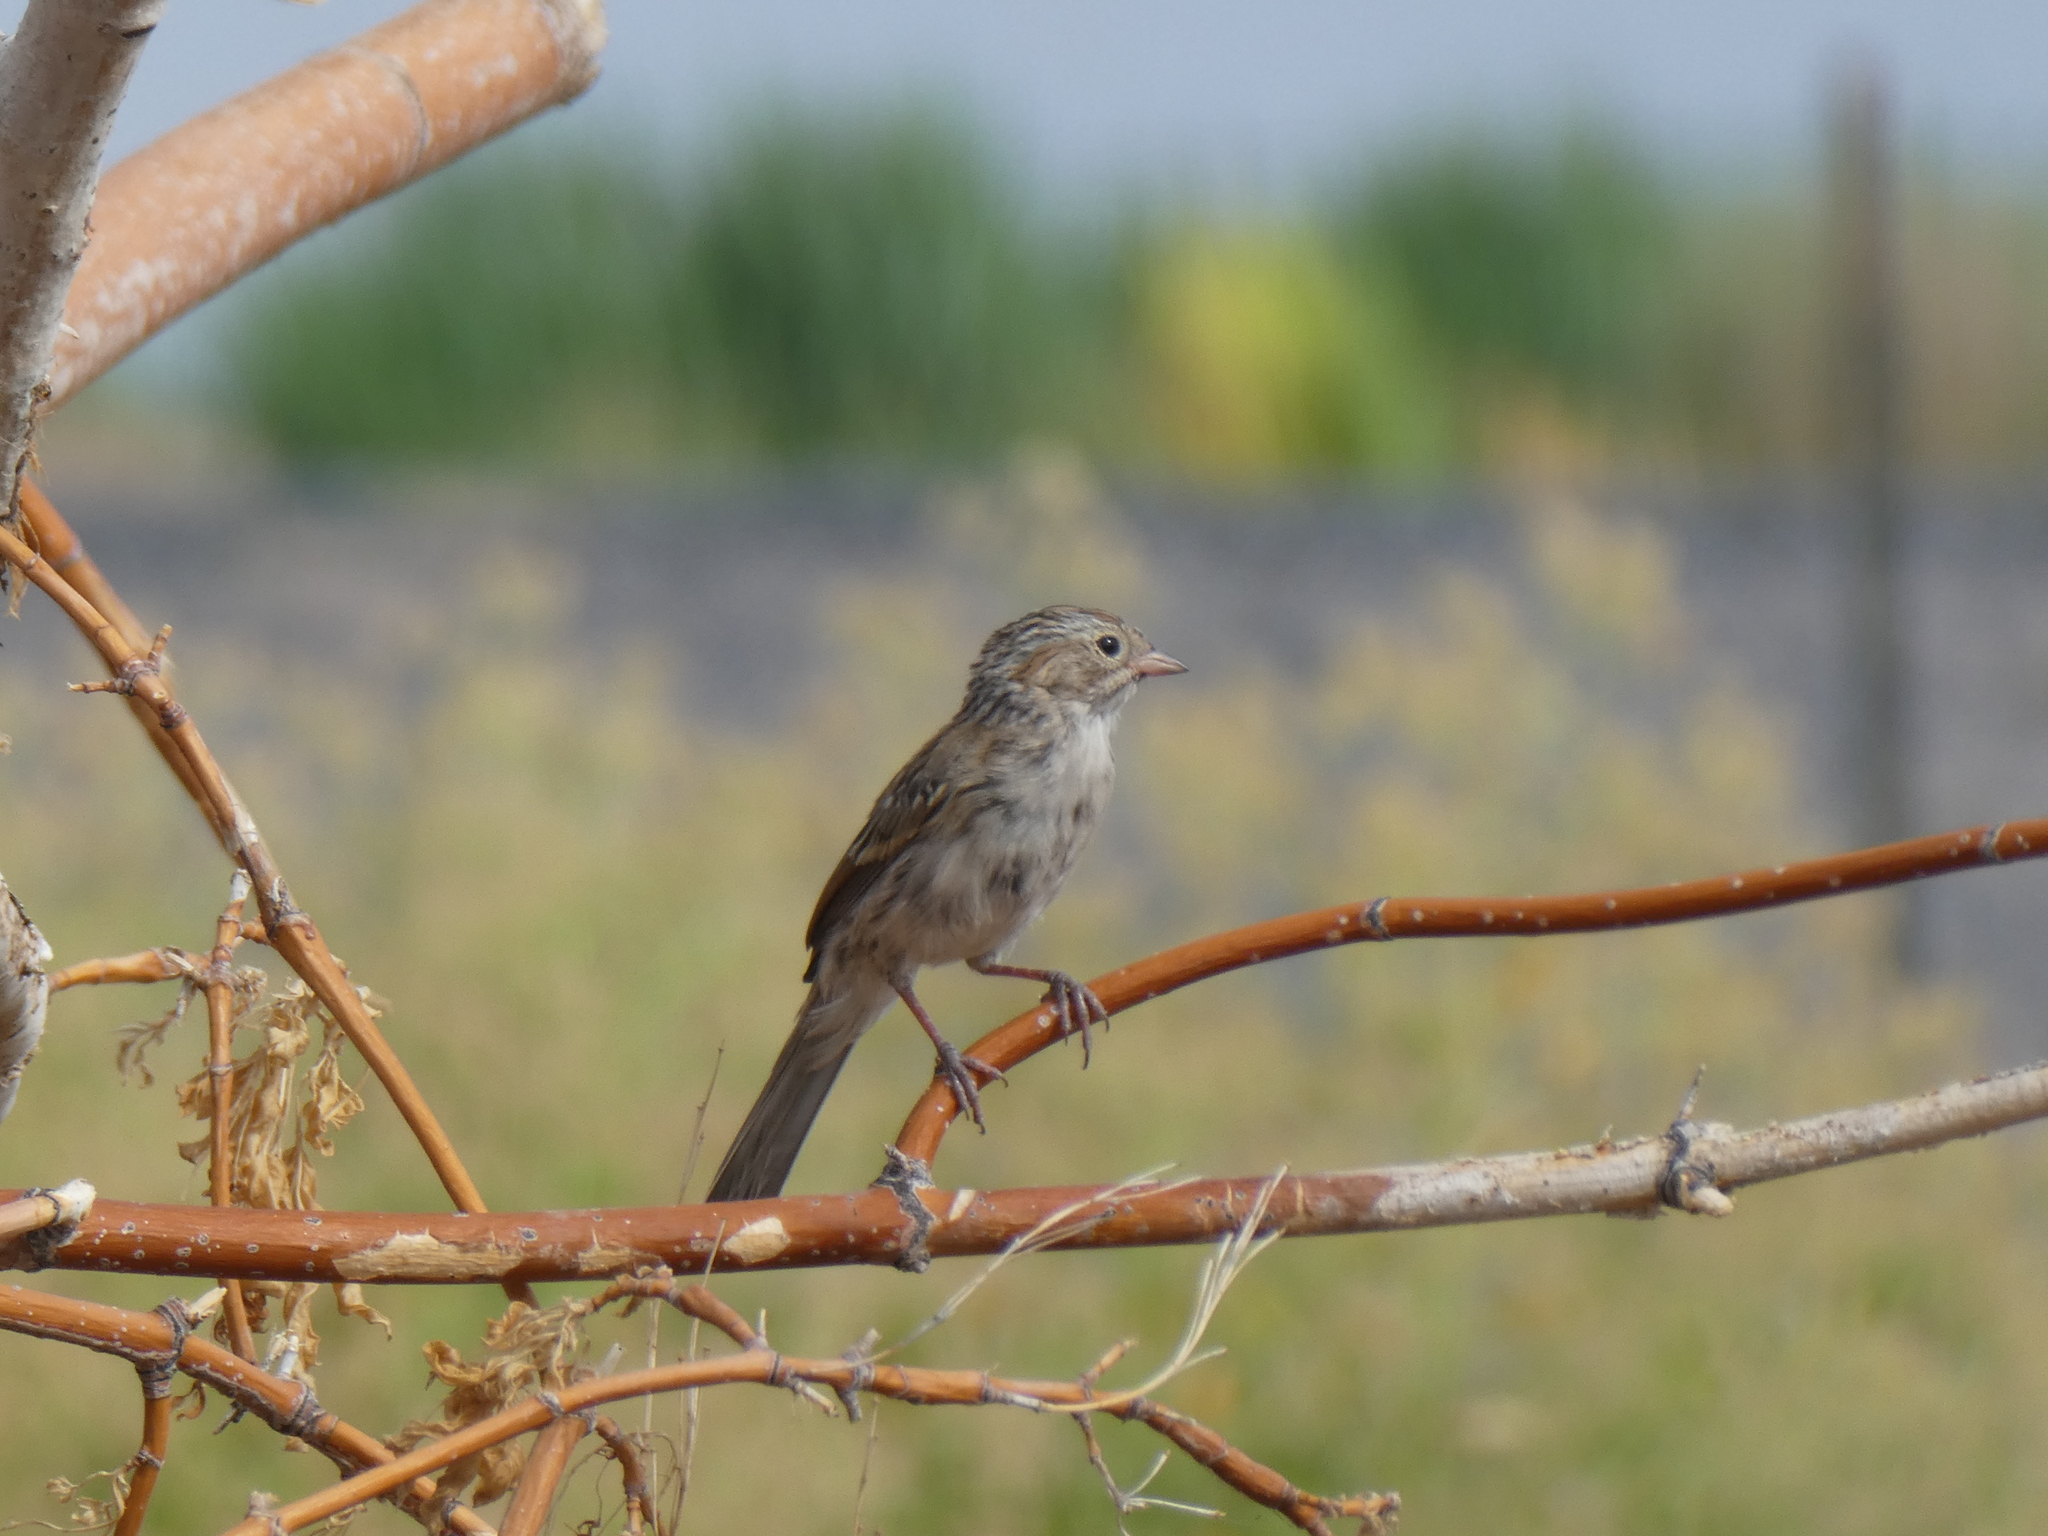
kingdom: Animalia
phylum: Chordata
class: Aves
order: Passeriformes
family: Passerellidae
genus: Spizella
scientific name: Spizella breweri
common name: Brewer's sparrow
